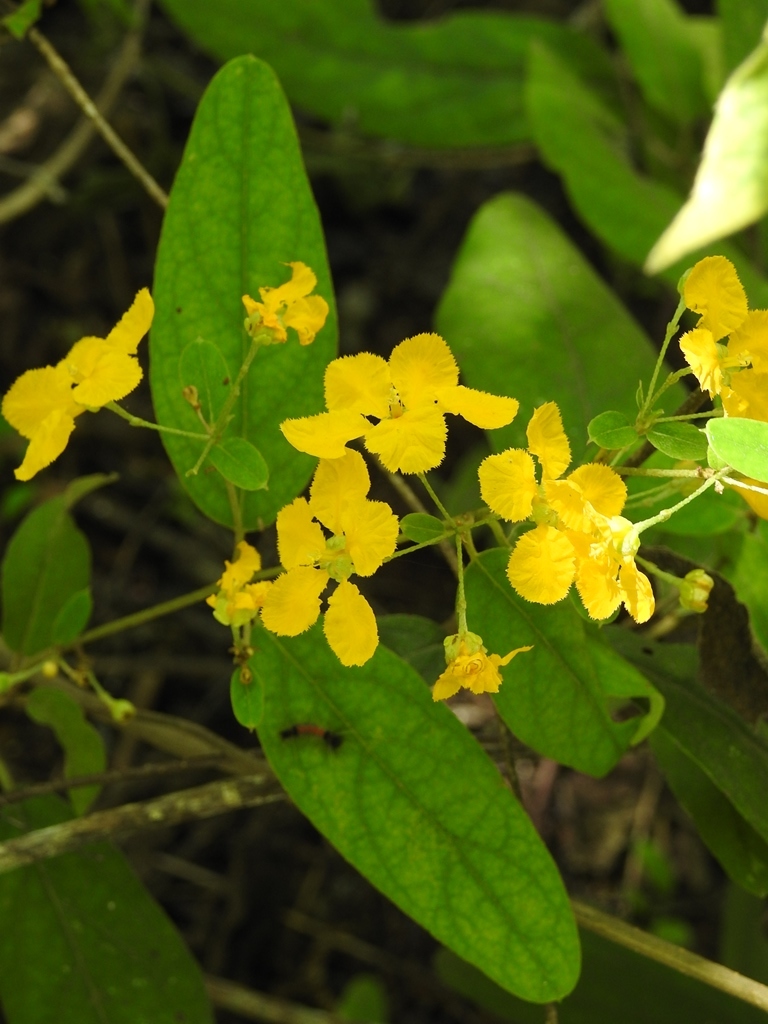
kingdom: Plantae
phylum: Tracheophyta
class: Magnoliopsida
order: Malpighiales
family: Malpighiaceae
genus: Gaudichaudia
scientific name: Gaudichaudia cynanchoides
